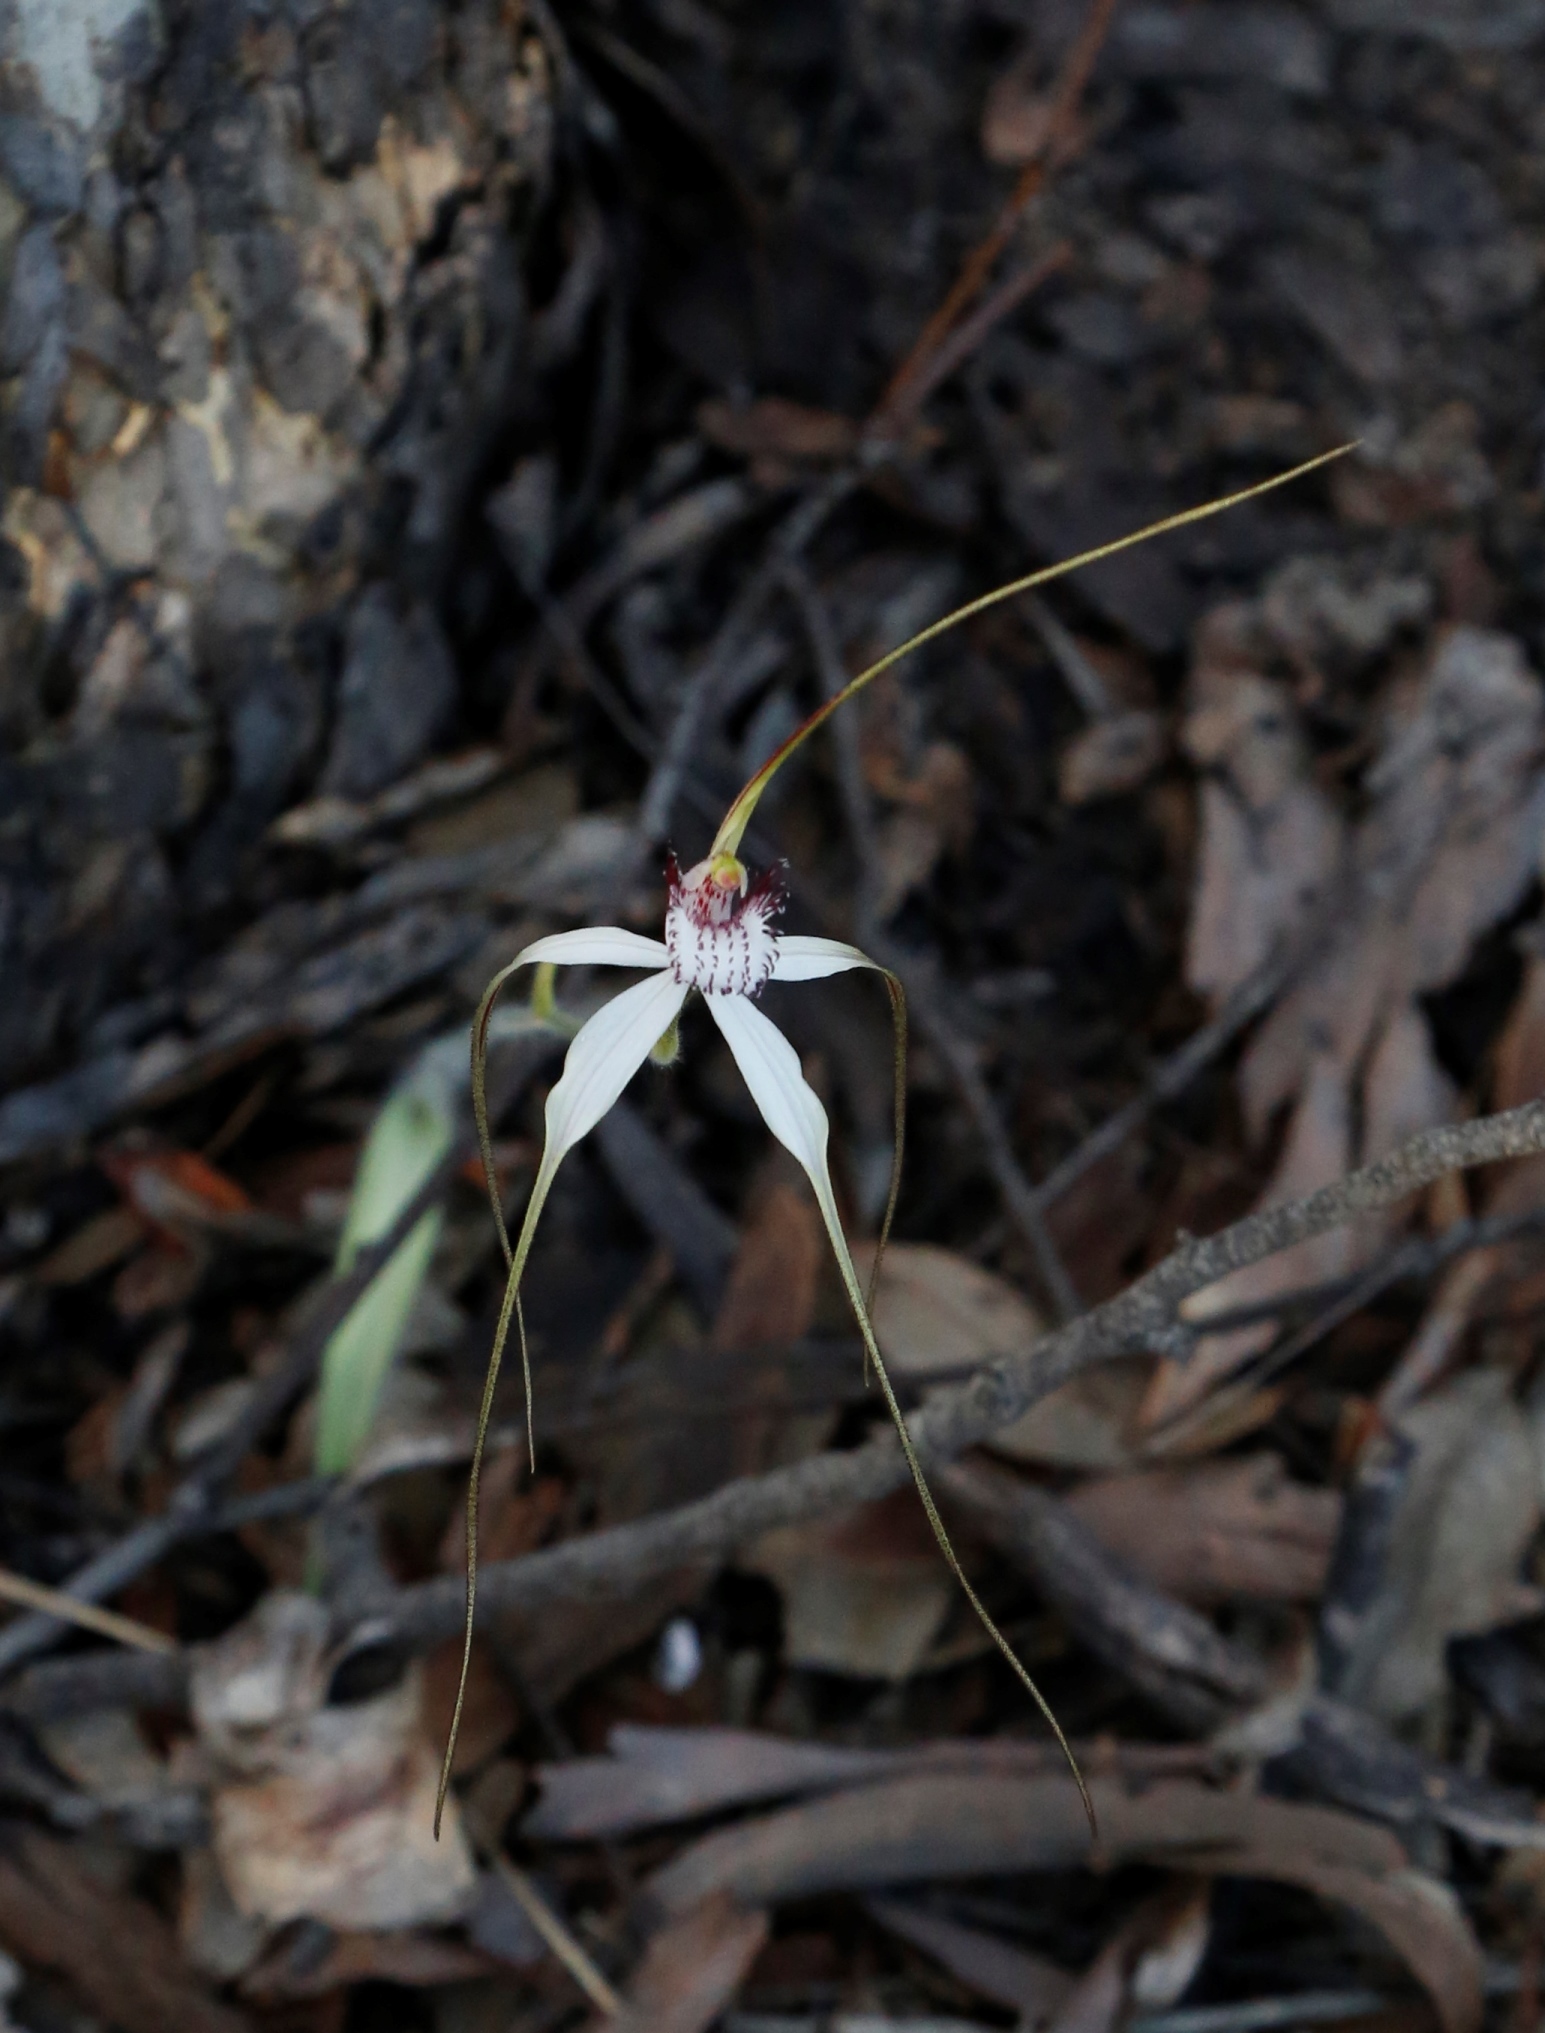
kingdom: Plantae
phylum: Tracheophyta
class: Liliopsida
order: Asparagales
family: Orchidaceae
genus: Caladenia
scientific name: Caladenia longicauda
